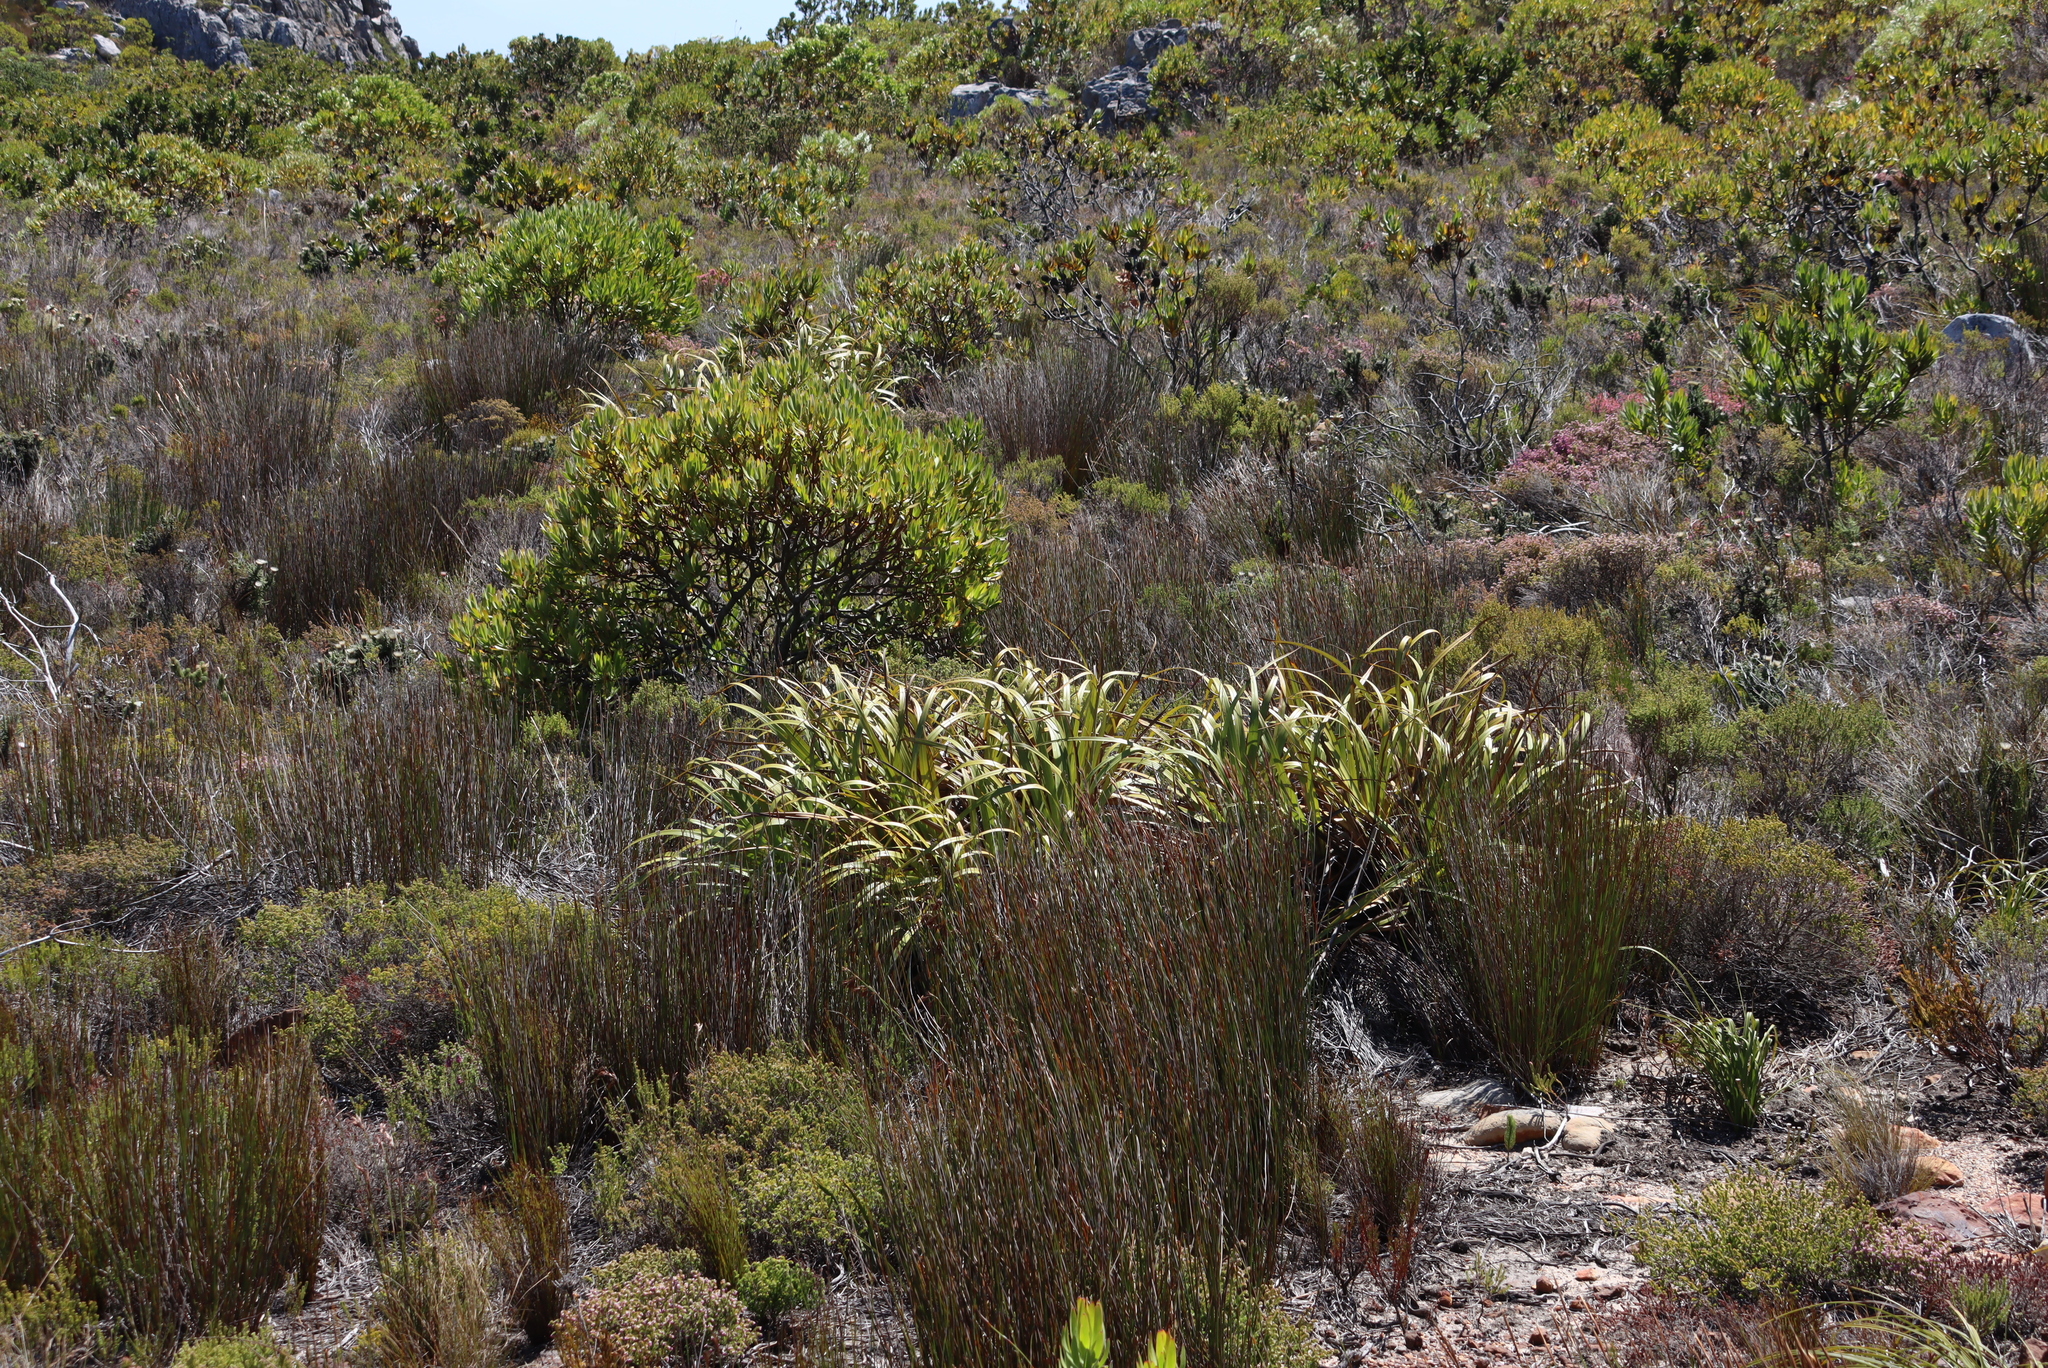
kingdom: Plantae
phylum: Tracheophyta
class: Liliopsida
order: Poales
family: Cyperaceae
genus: Tetraria
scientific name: Tetraria thermalis
